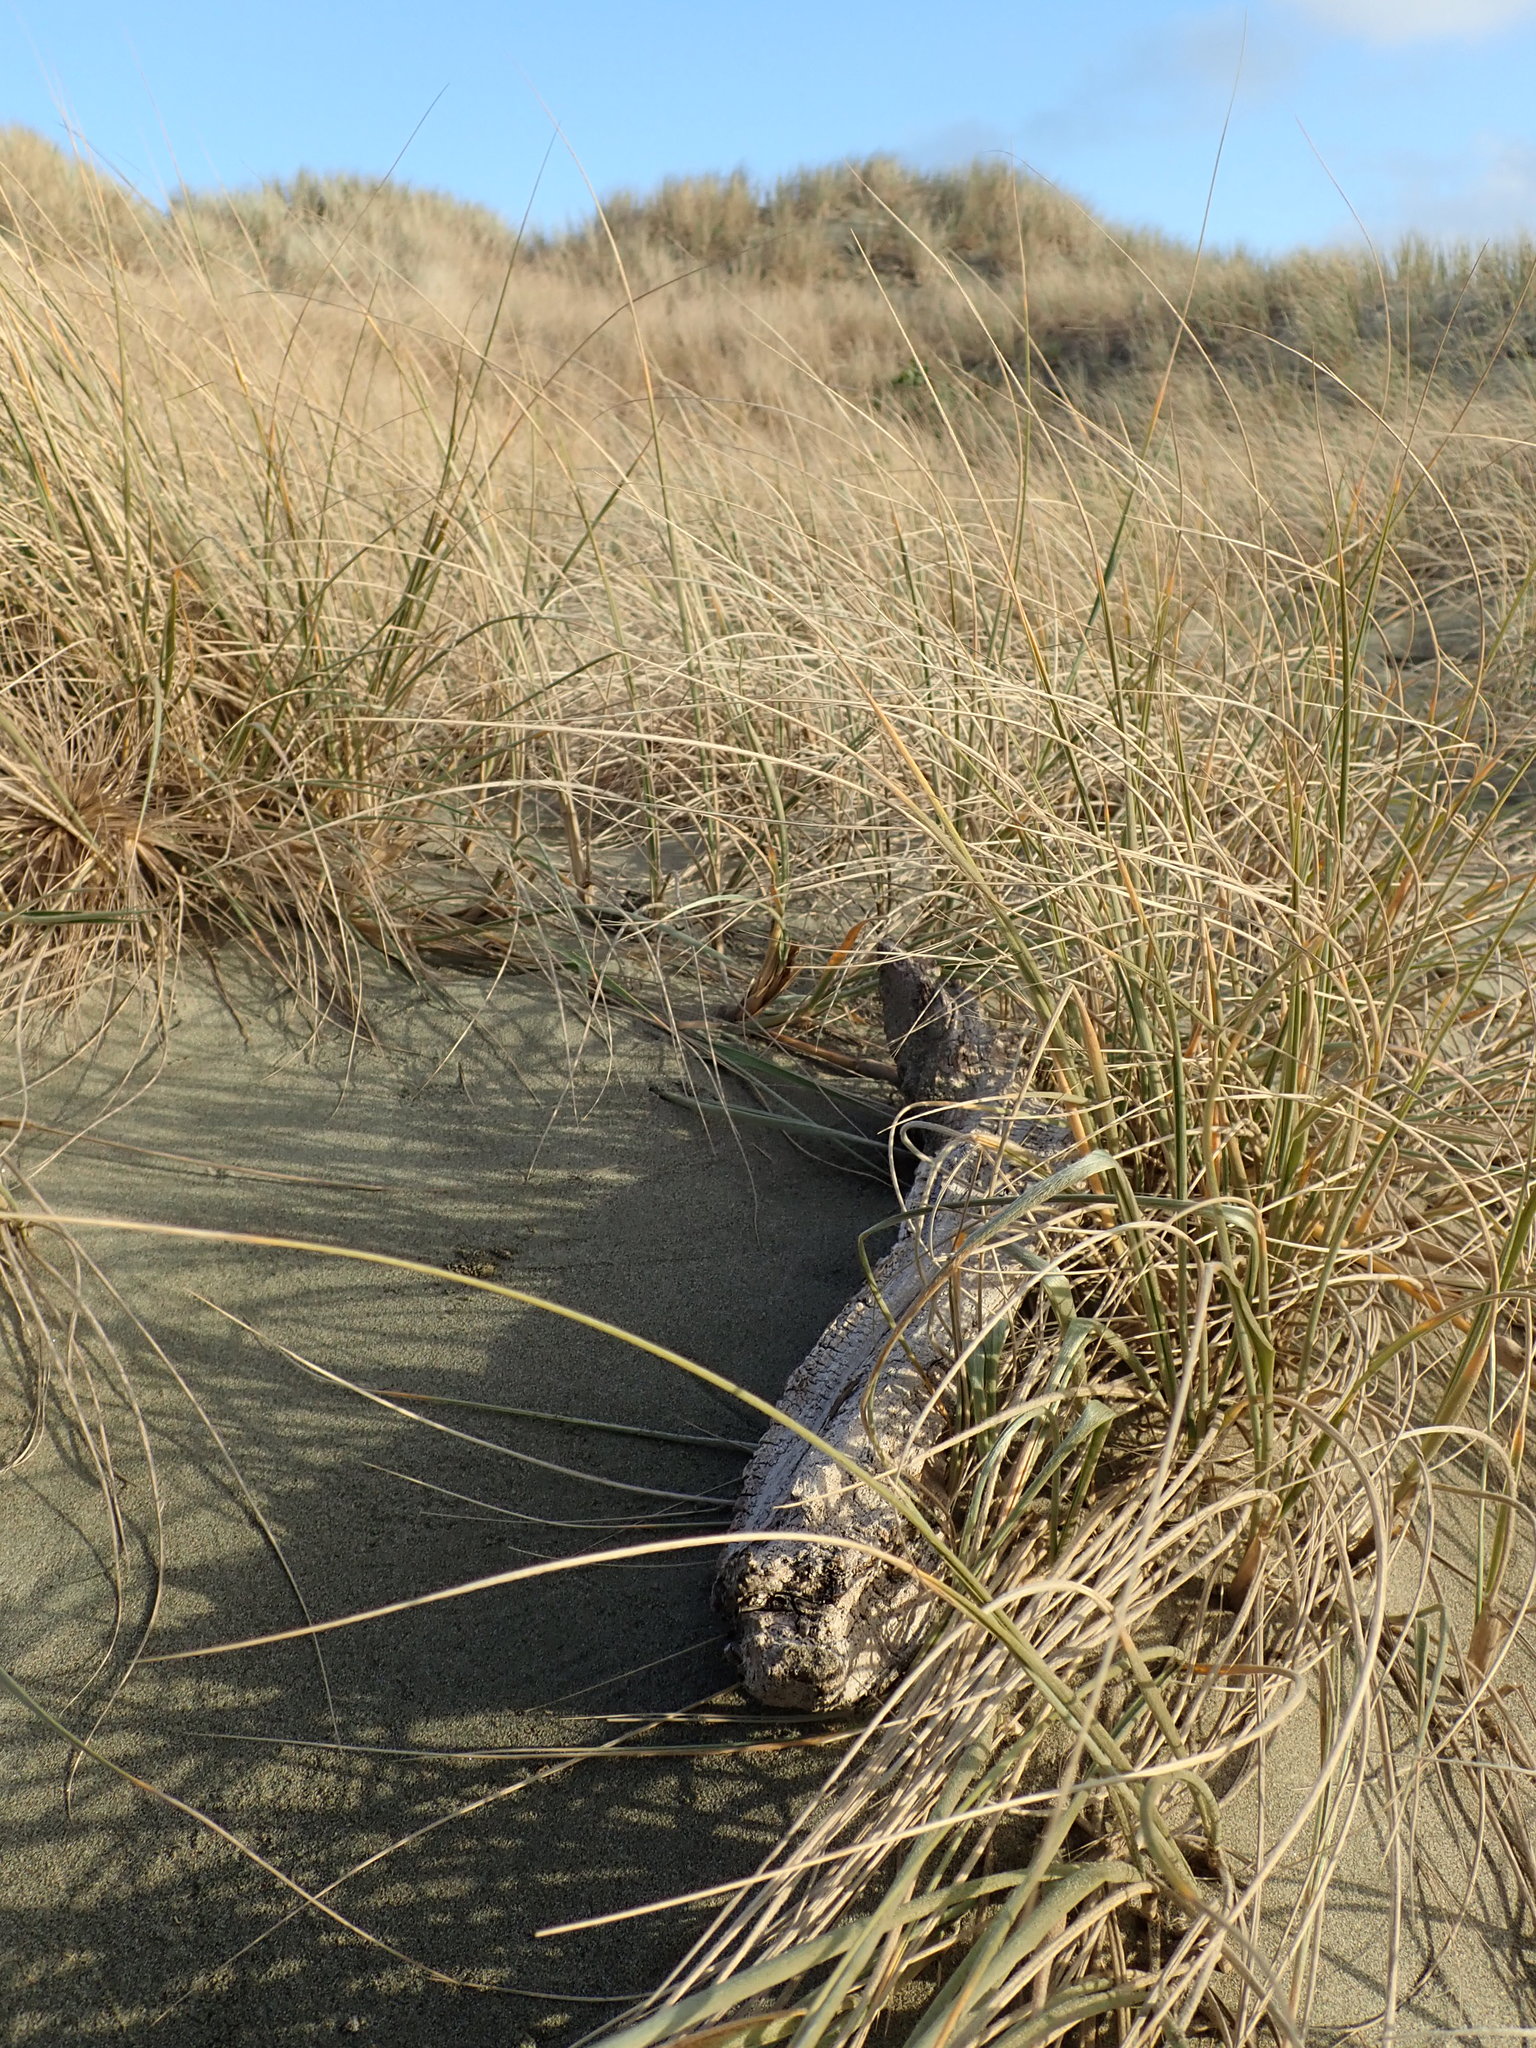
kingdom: Animalia
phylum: Arthropoda
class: Arachnida
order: Araneae
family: Theridiidae
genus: Cryptachaea
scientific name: Cryptachaea blattea
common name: Theridiid spider
